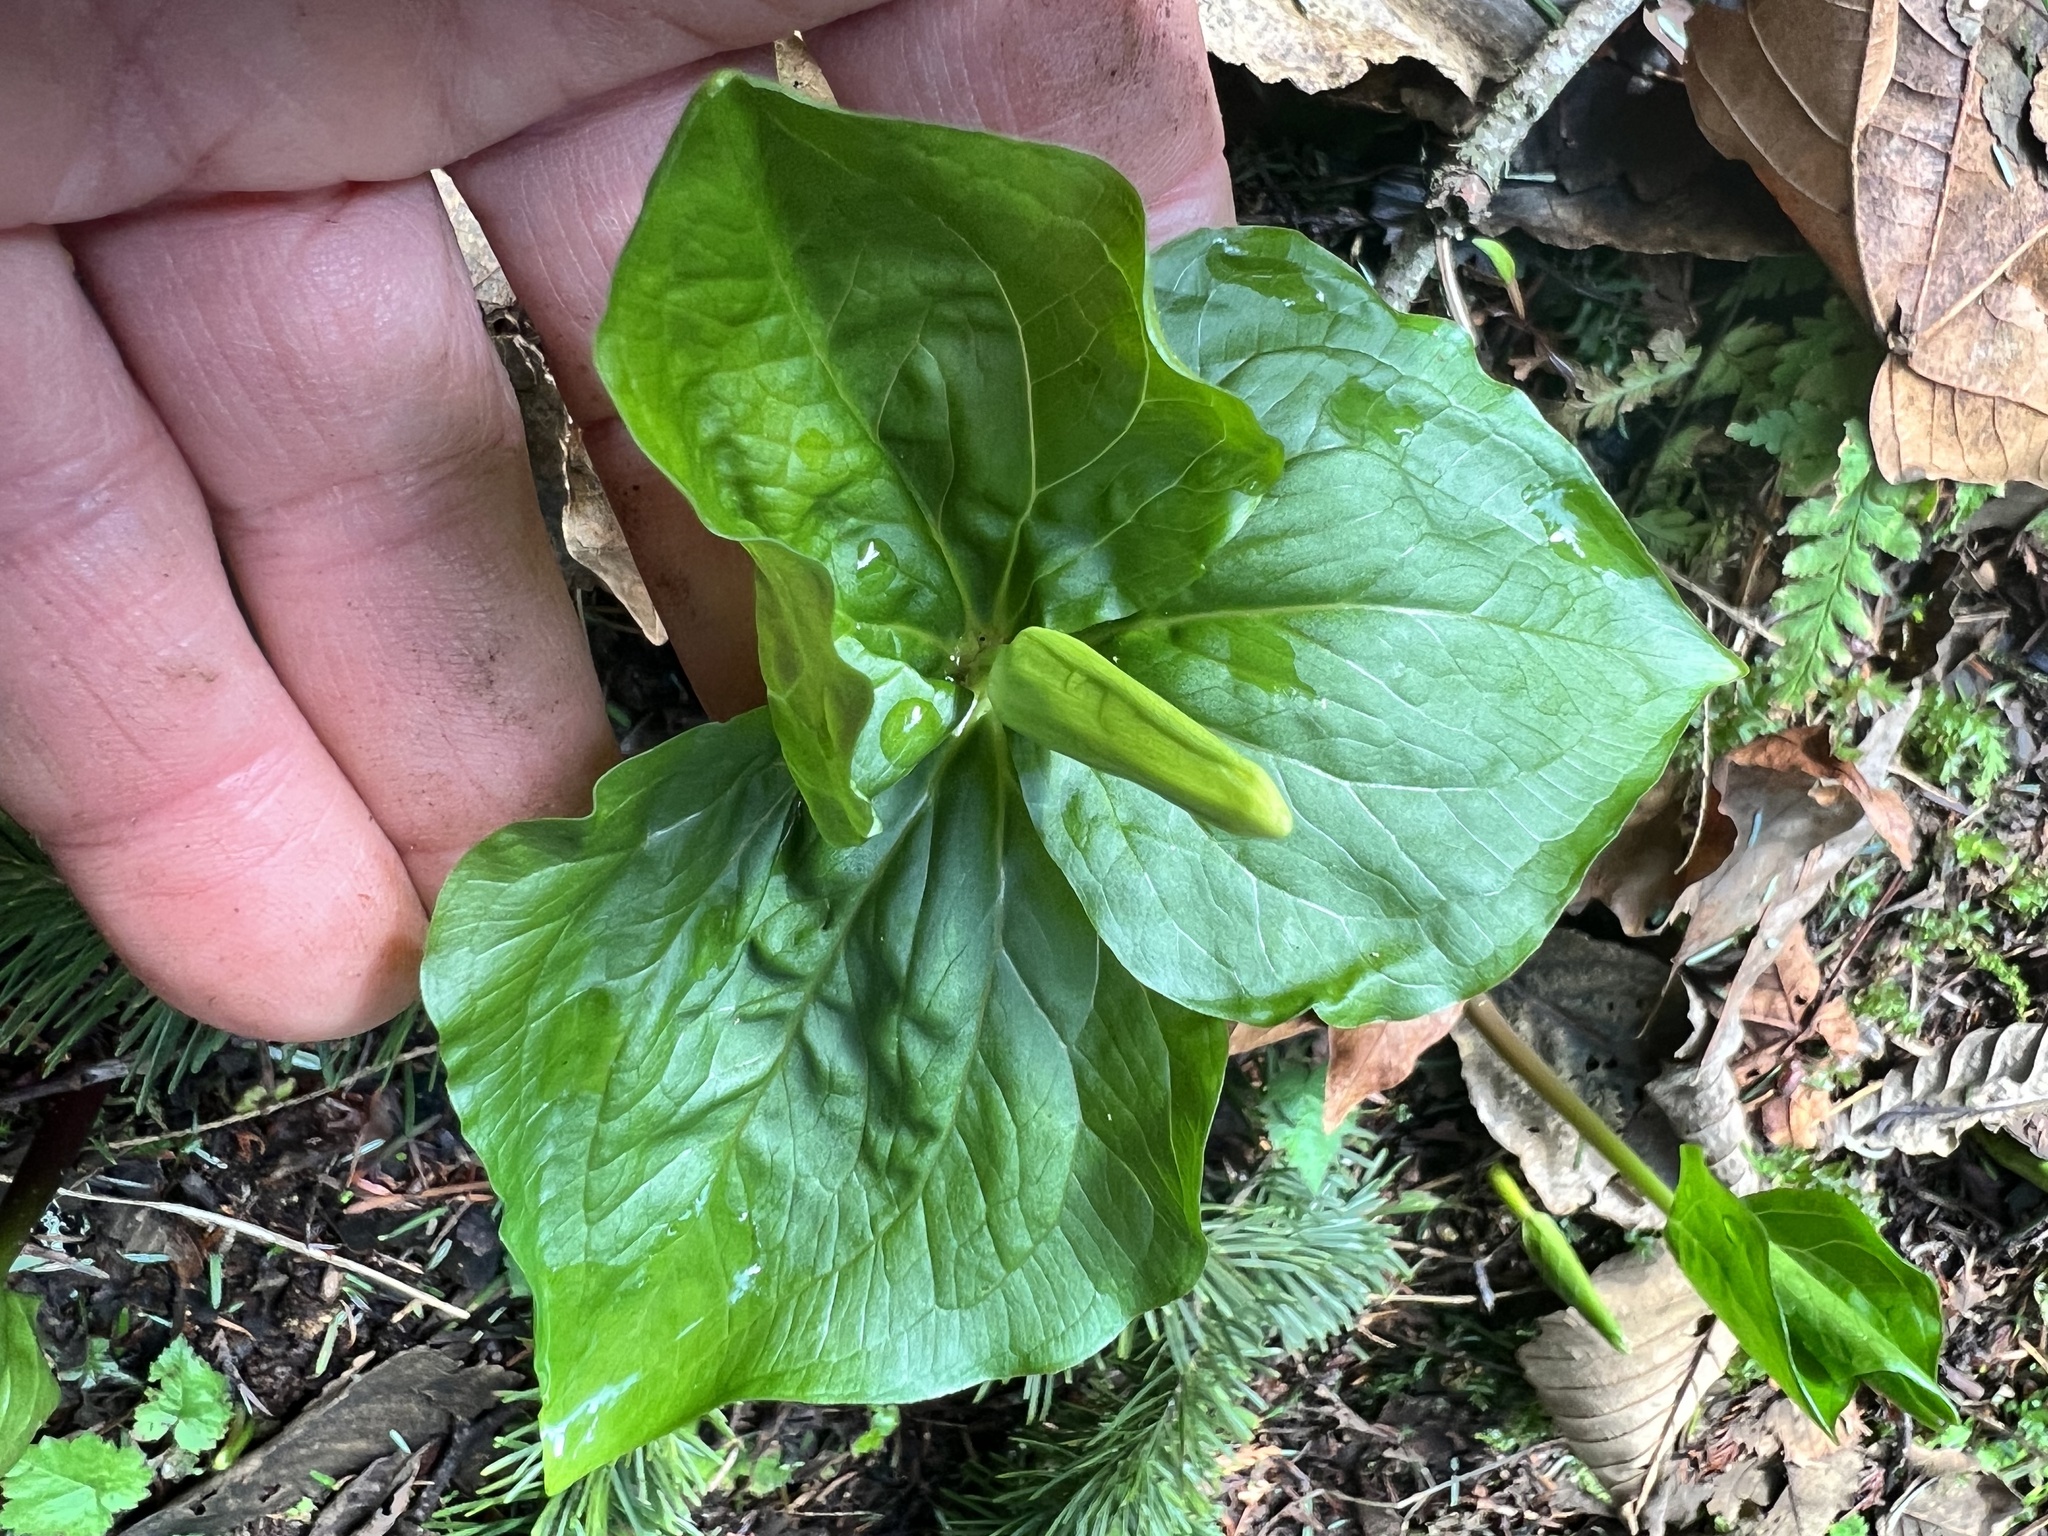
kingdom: Plantae
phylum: Tracheophyta
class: Liliopsida
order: Liliales
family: Melanthiaceae
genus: Trillium
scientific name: Trillium ovatum
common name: Pacific trillium
